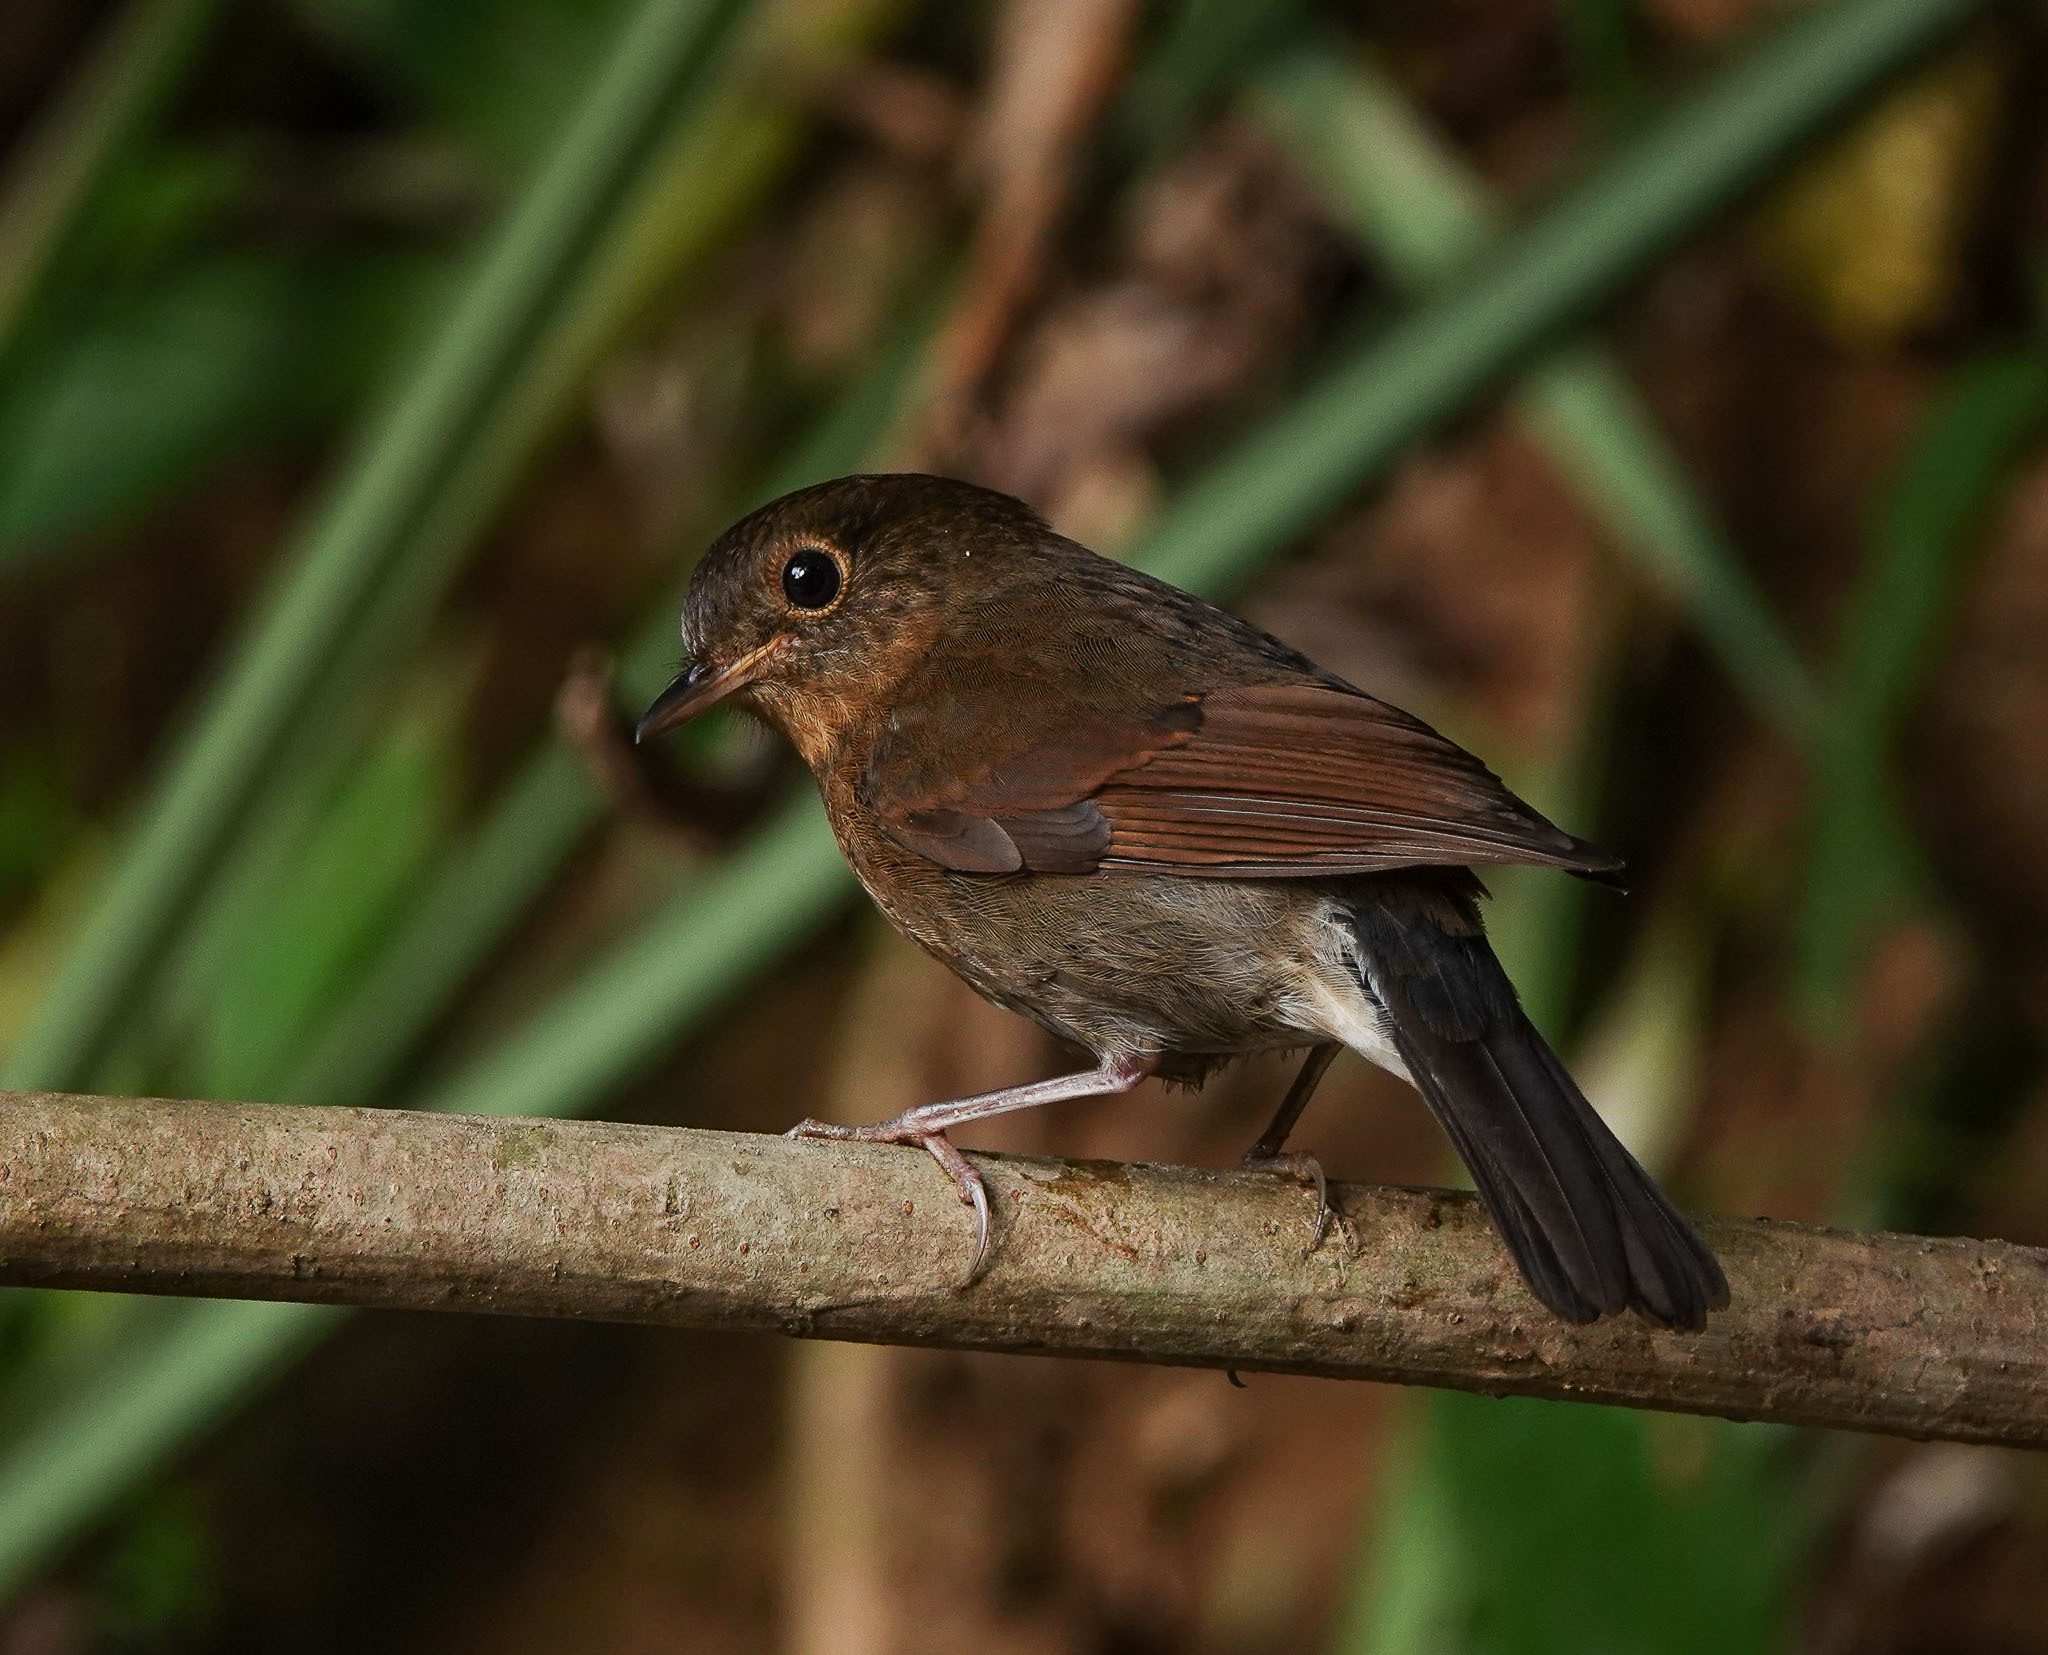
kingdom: Animalia
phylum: Chordata
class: Aves
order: Passeriformes
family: Muscicapidae
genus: Myiomela
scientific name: Myiomela leucura
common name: White-tailed robin
